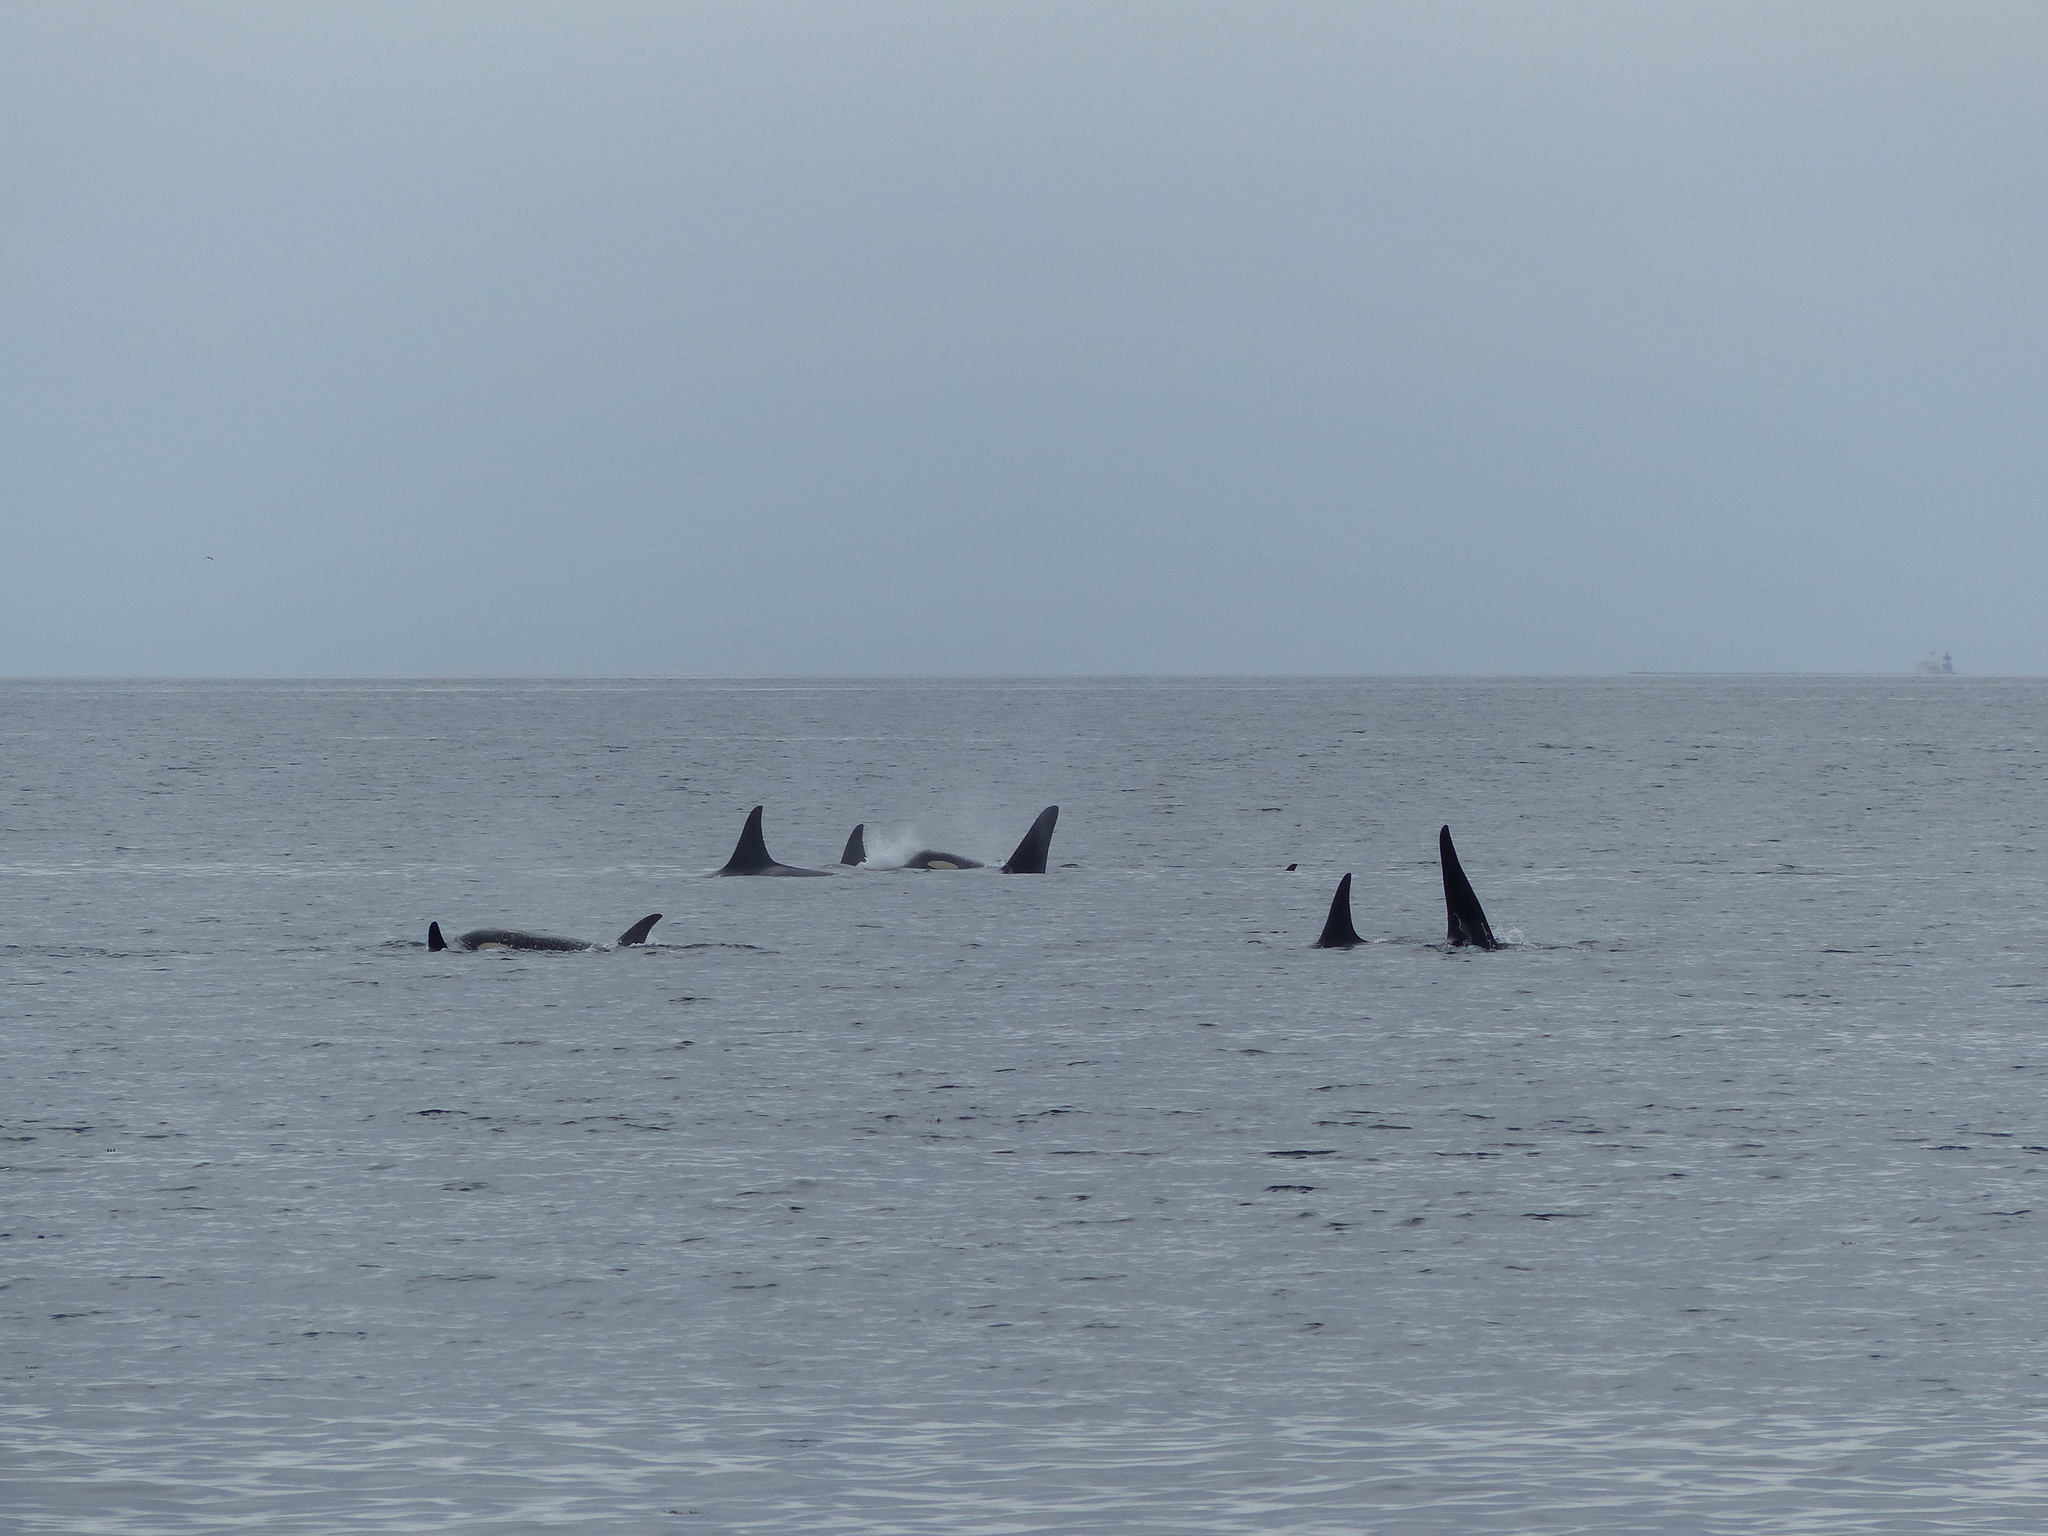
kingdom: Animalia
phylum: Chordata
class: Mammalia
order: Cetacea
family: Delphinidae
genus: Orcinus
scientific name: Orcinus orca
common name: Killer whale
